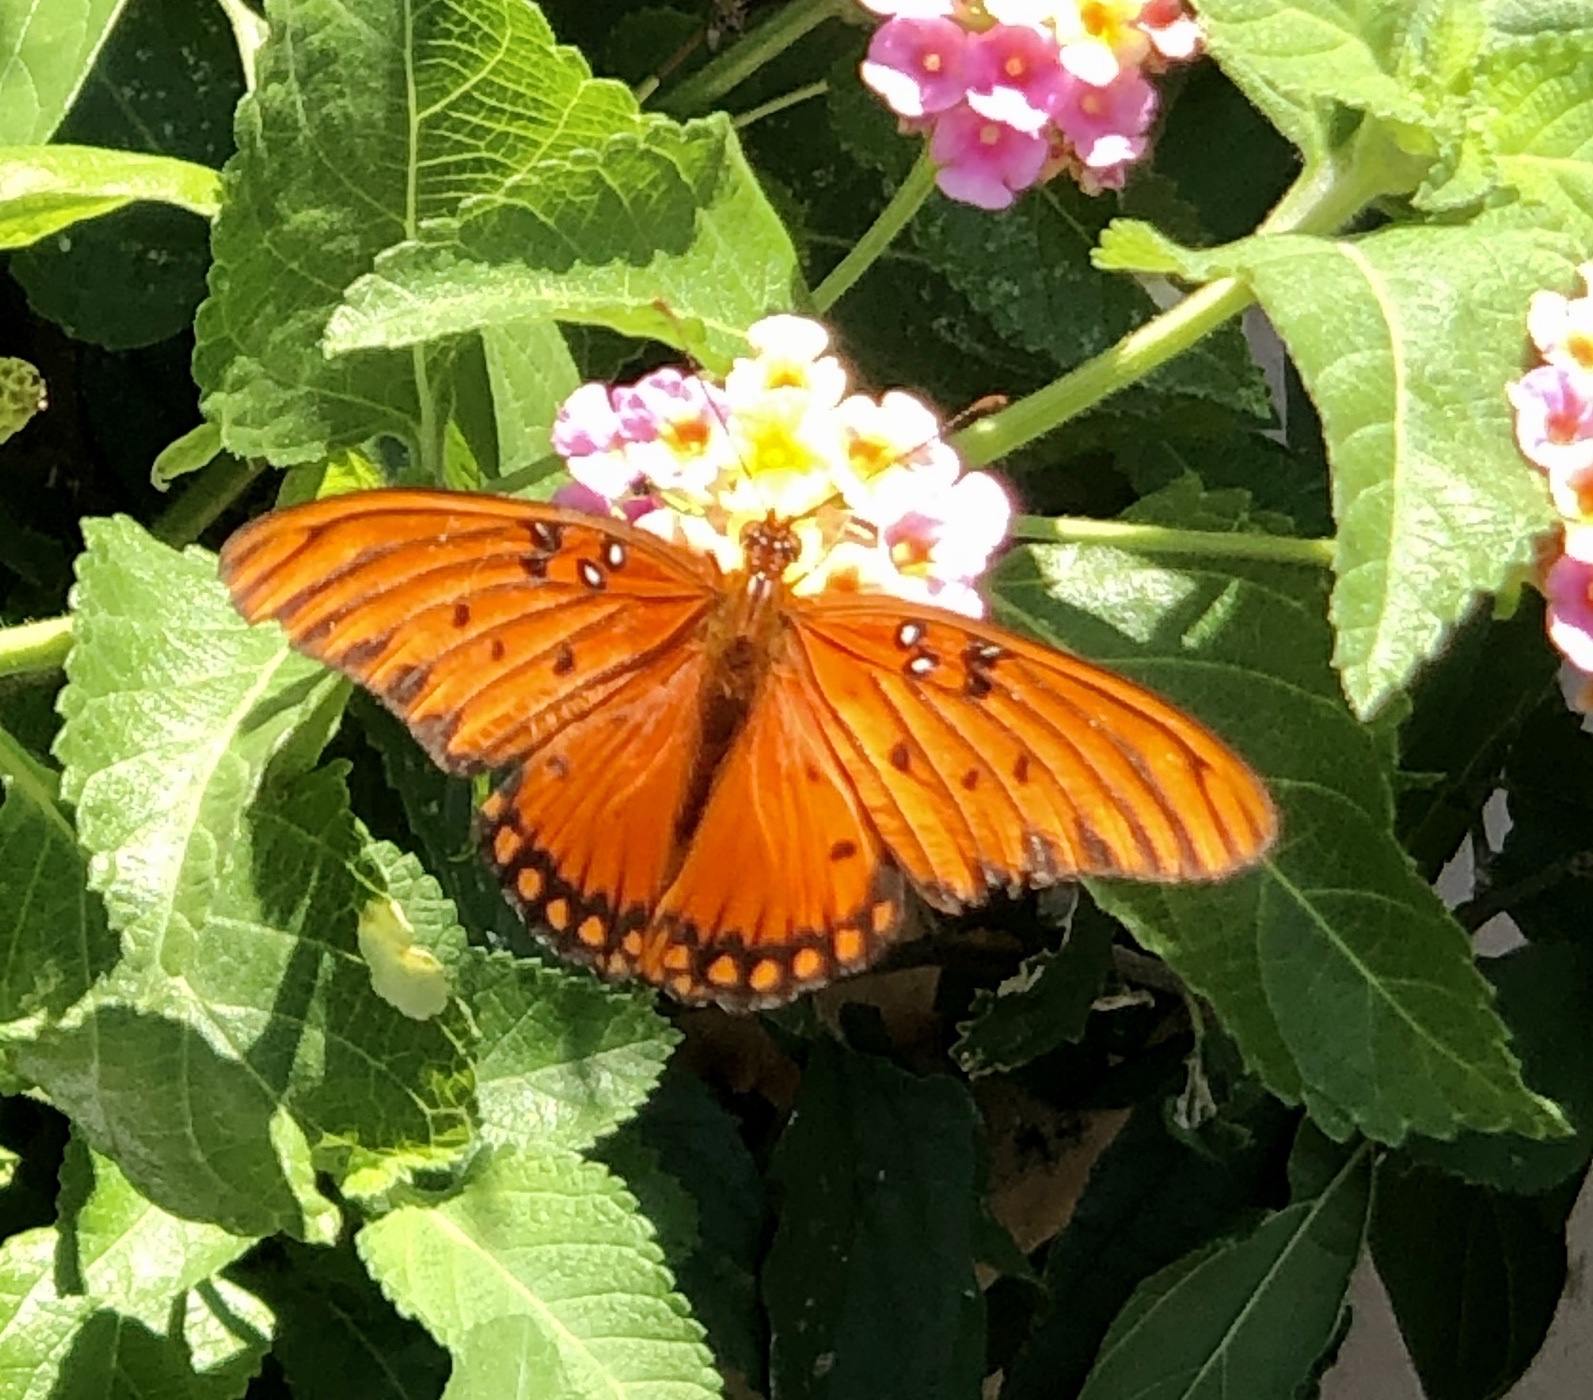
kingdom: Animalia
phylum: Arthropoda
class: Insecta
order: Lepidoptera
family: Nymphalidae
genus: Dione
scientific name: Dione vanillae
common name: Gulf fritillary
